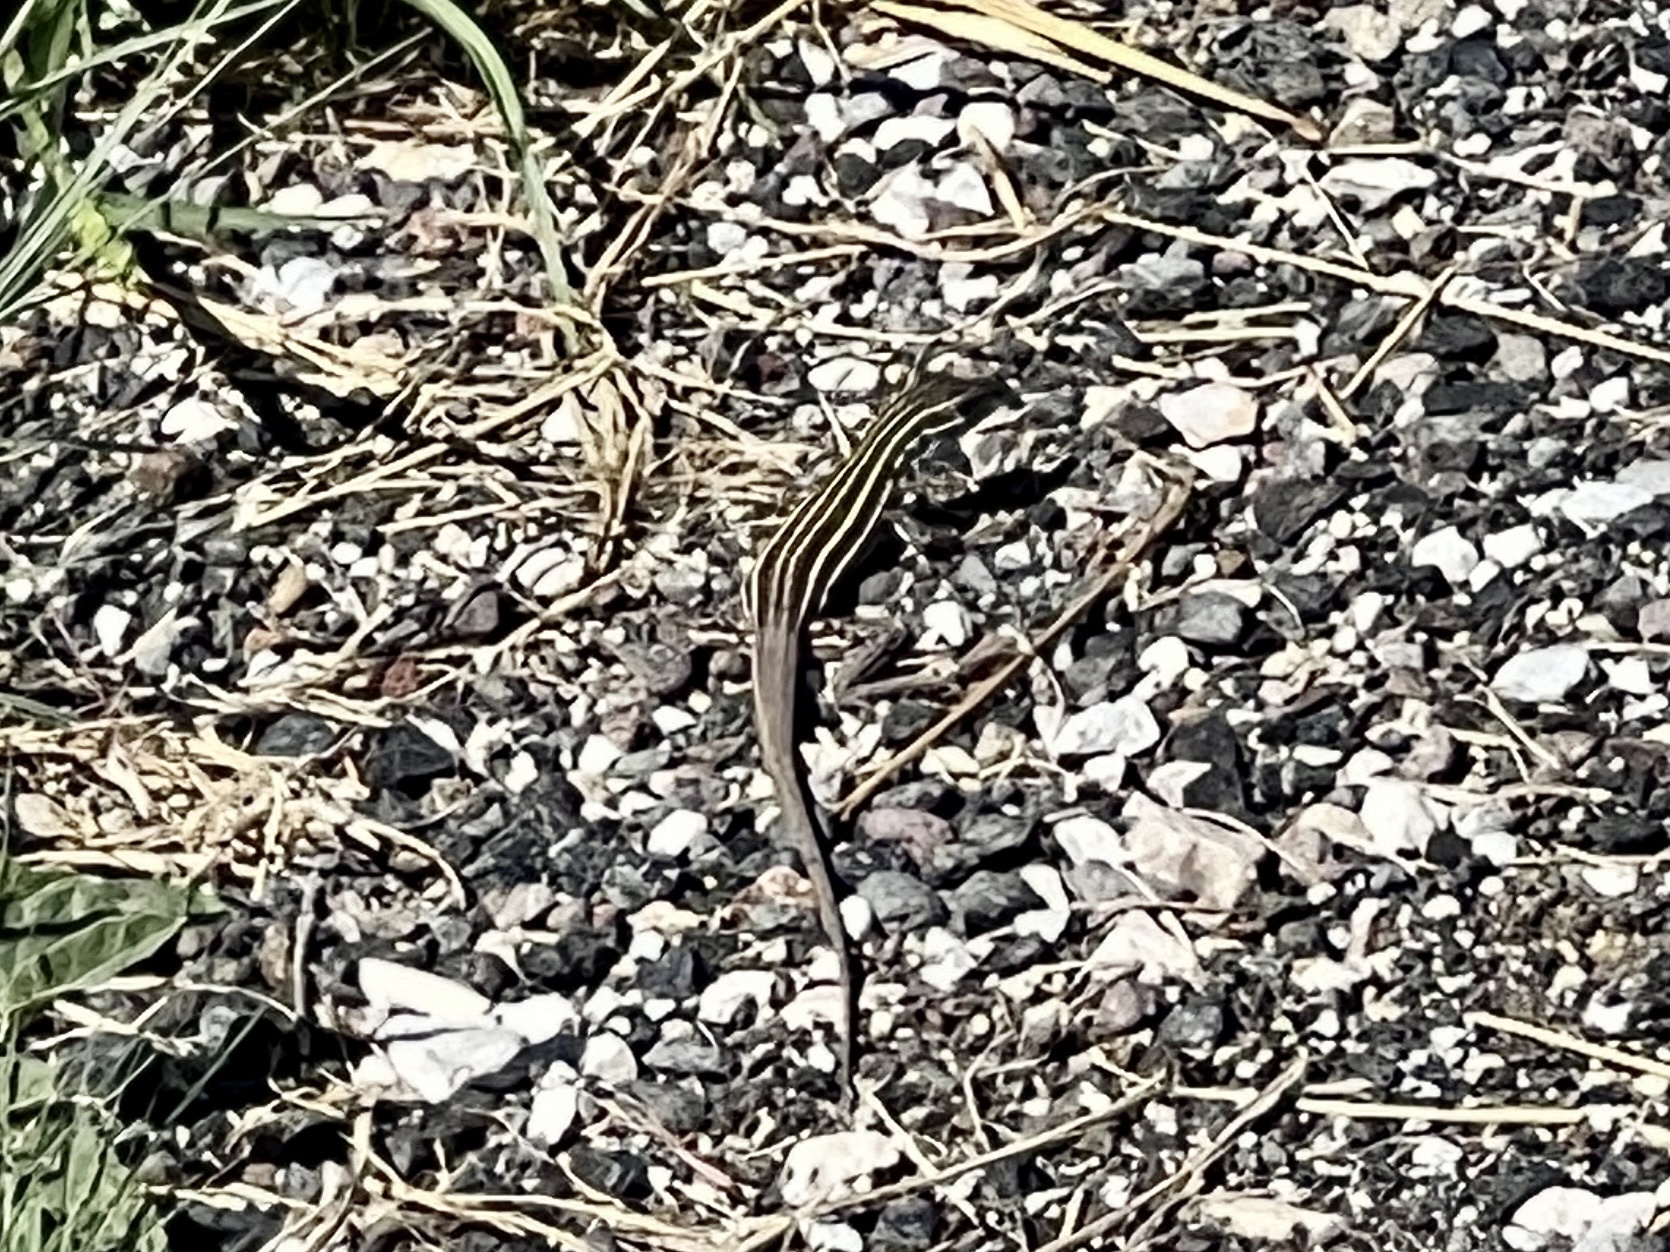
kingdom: Animalia
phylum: Chordata
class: Squamata
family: Teiidae
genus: Aspidoscelis
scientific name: Aspidoscelis exsanguis
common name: Chihuahuan spotted whiptail
